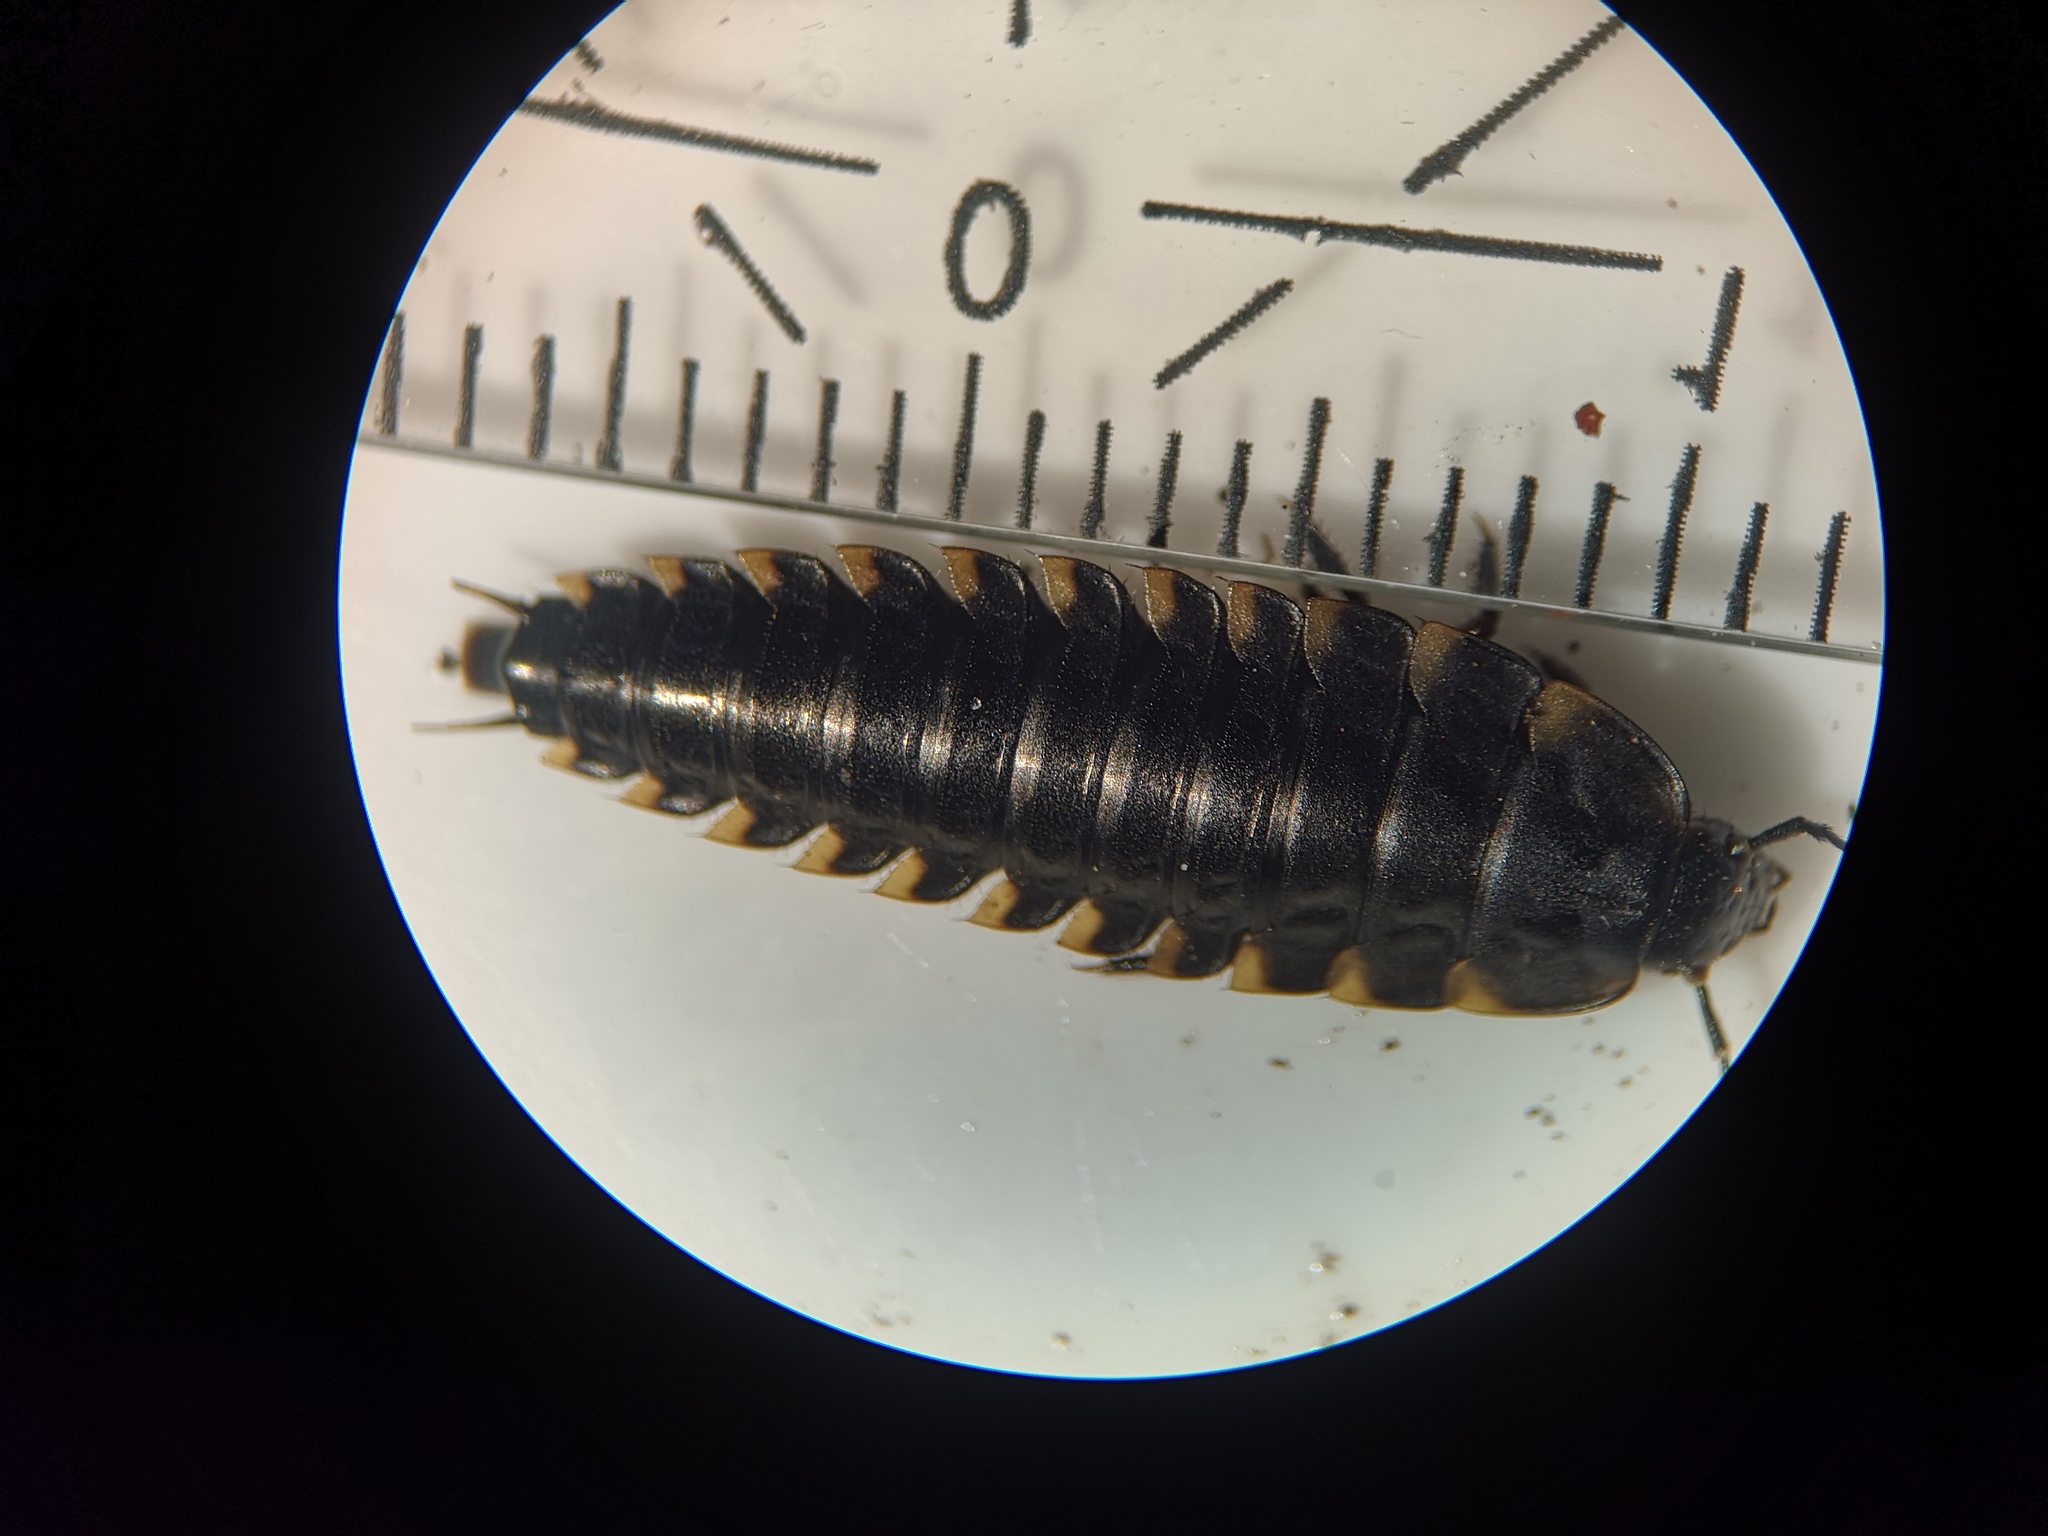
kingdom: Animalia
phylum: Arthropoda
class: Insecta
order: Coleoptera
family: Staphylinidae
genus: Silpha
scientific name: Silpha tristis
